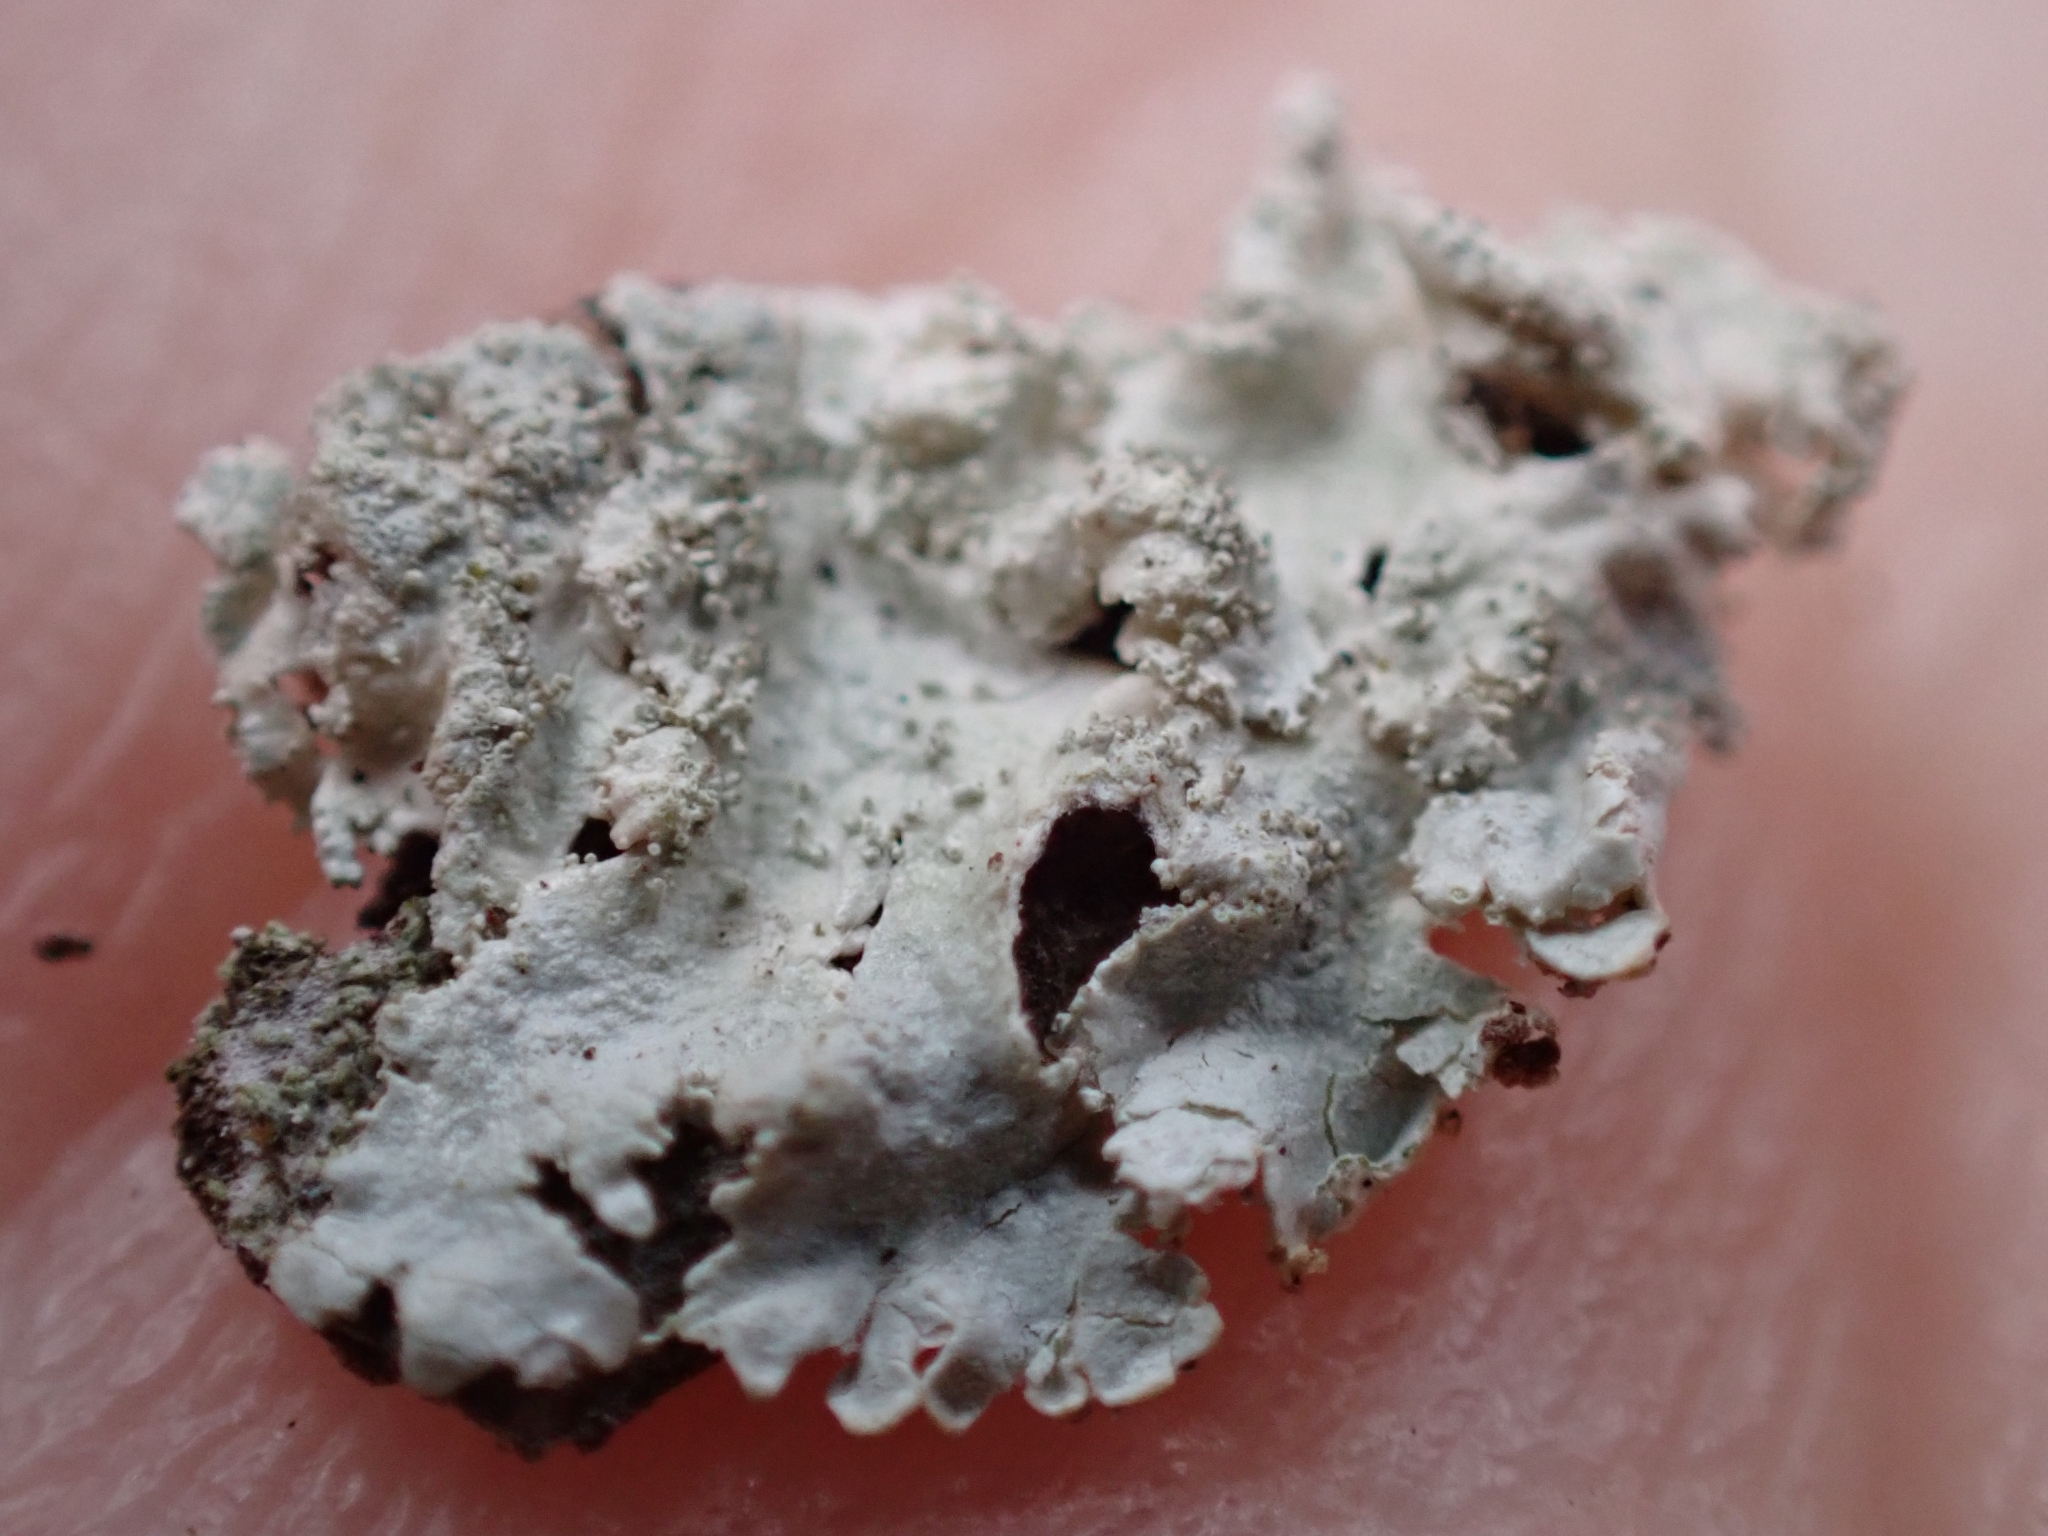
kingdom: Fungi
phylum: Ascomycota
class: Lecanoromycetes
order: Lecanorales
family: Parmeliaceae
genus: Imshaugia
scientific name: Imshaugia aleurites
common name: Salted starburst lichen
